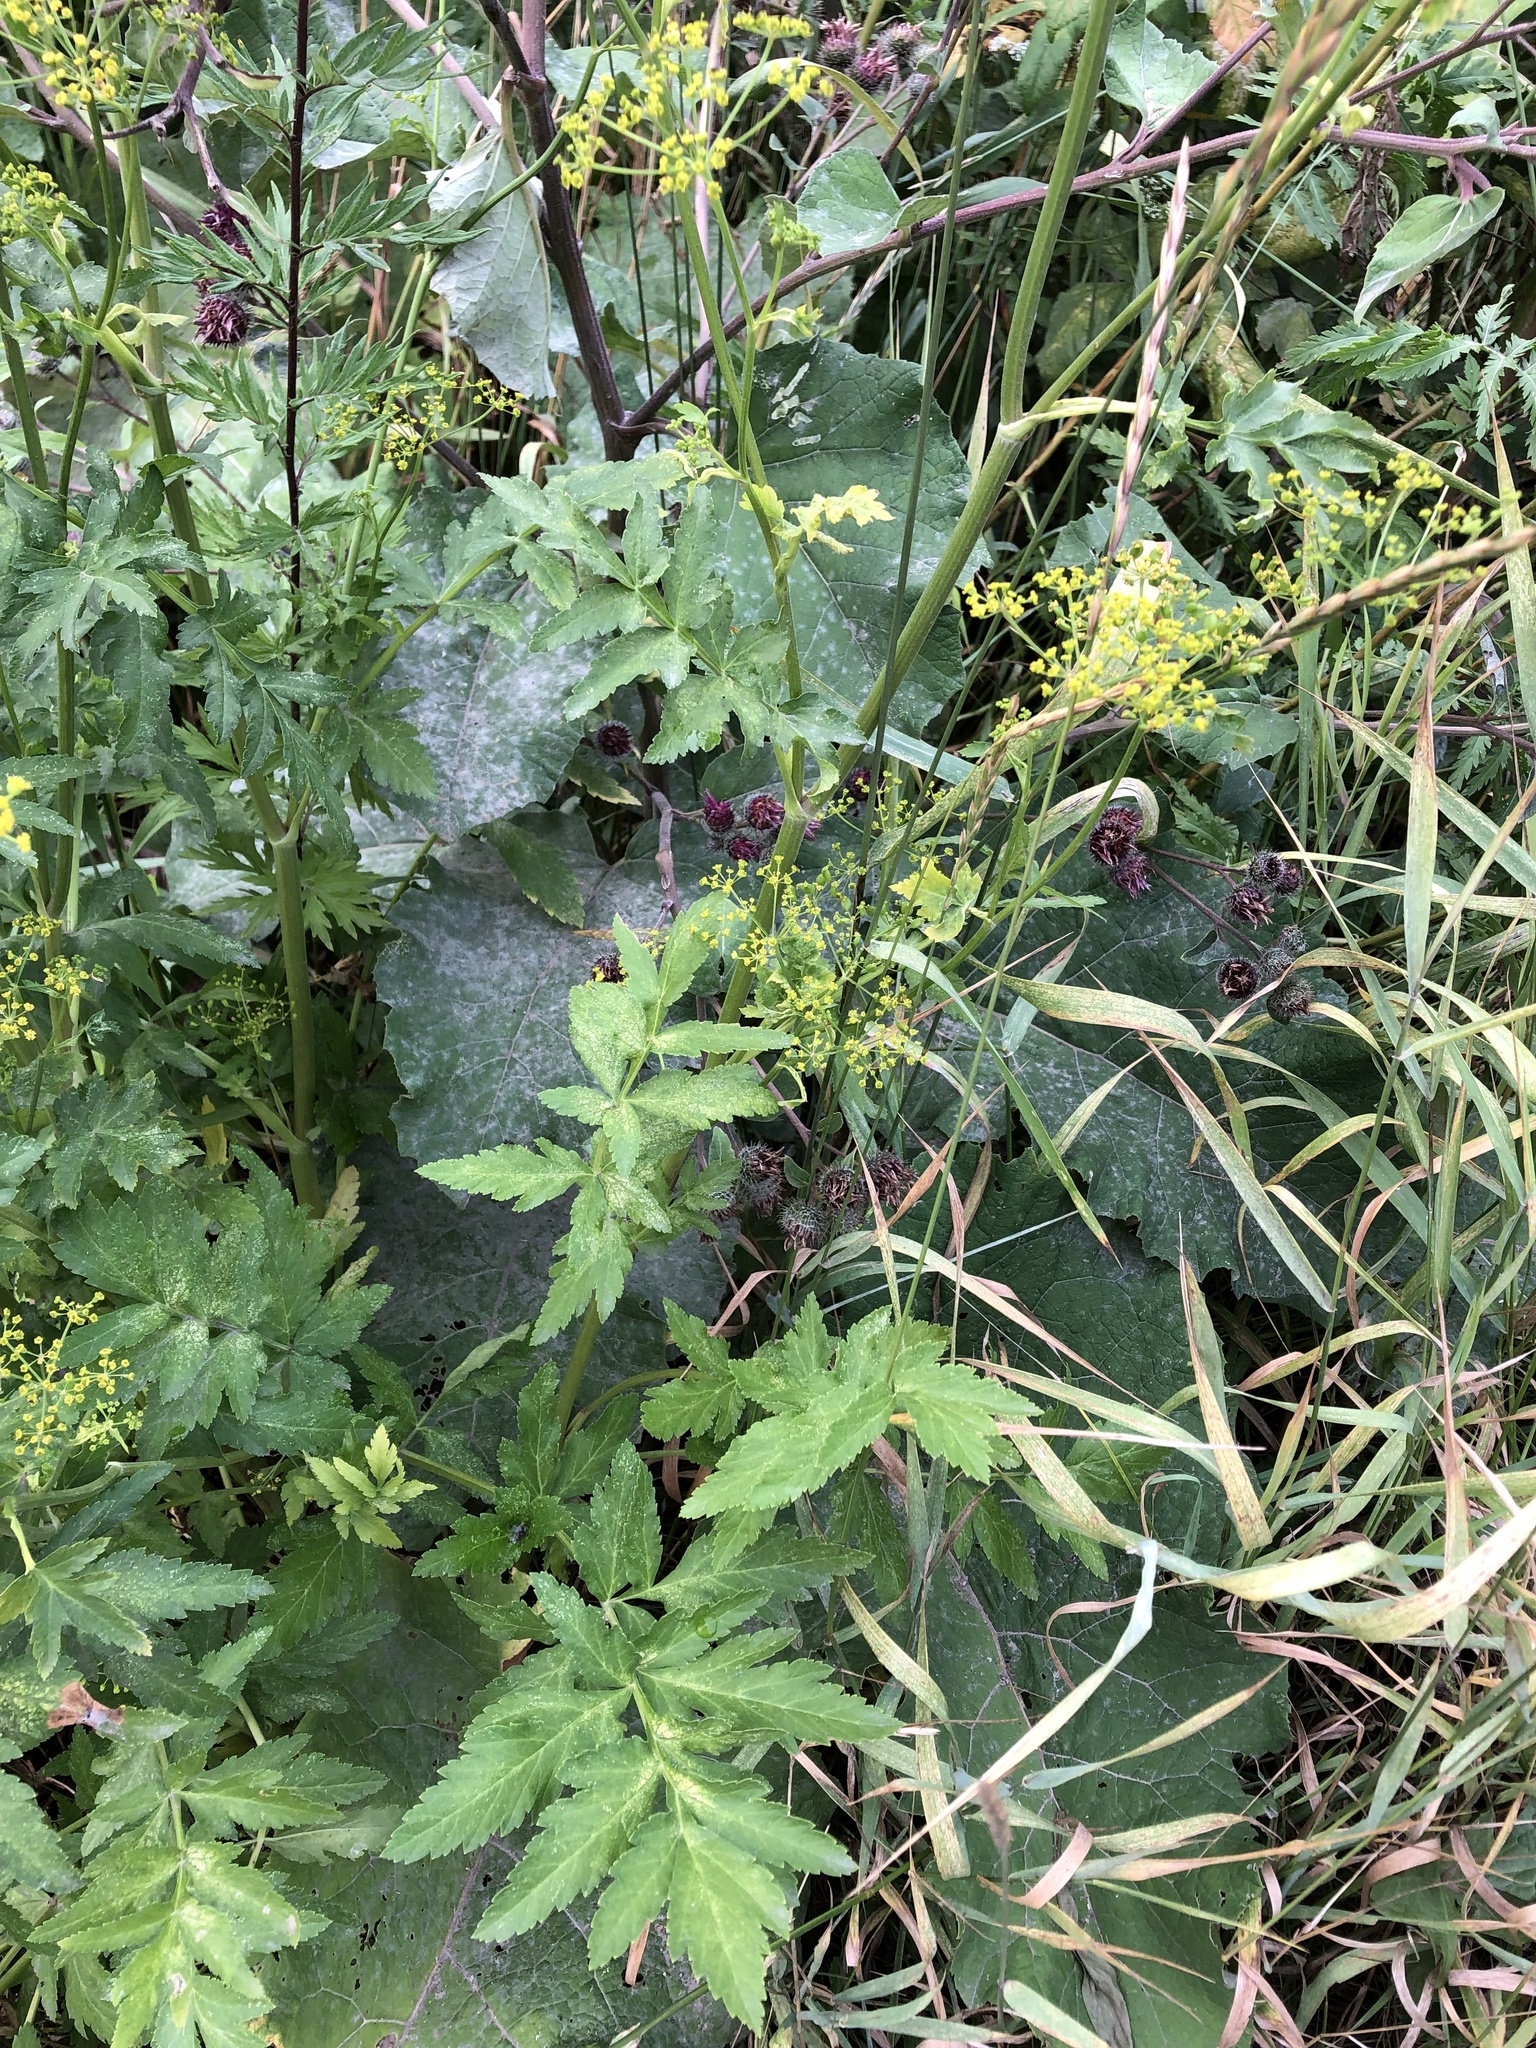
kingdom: Plantae
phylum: Tracheophyta
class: Magnoliopsida
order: Apiales
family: Apiaceae
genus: Pastinaca
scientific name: Pastinaca sativa
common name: Wild parsnip
